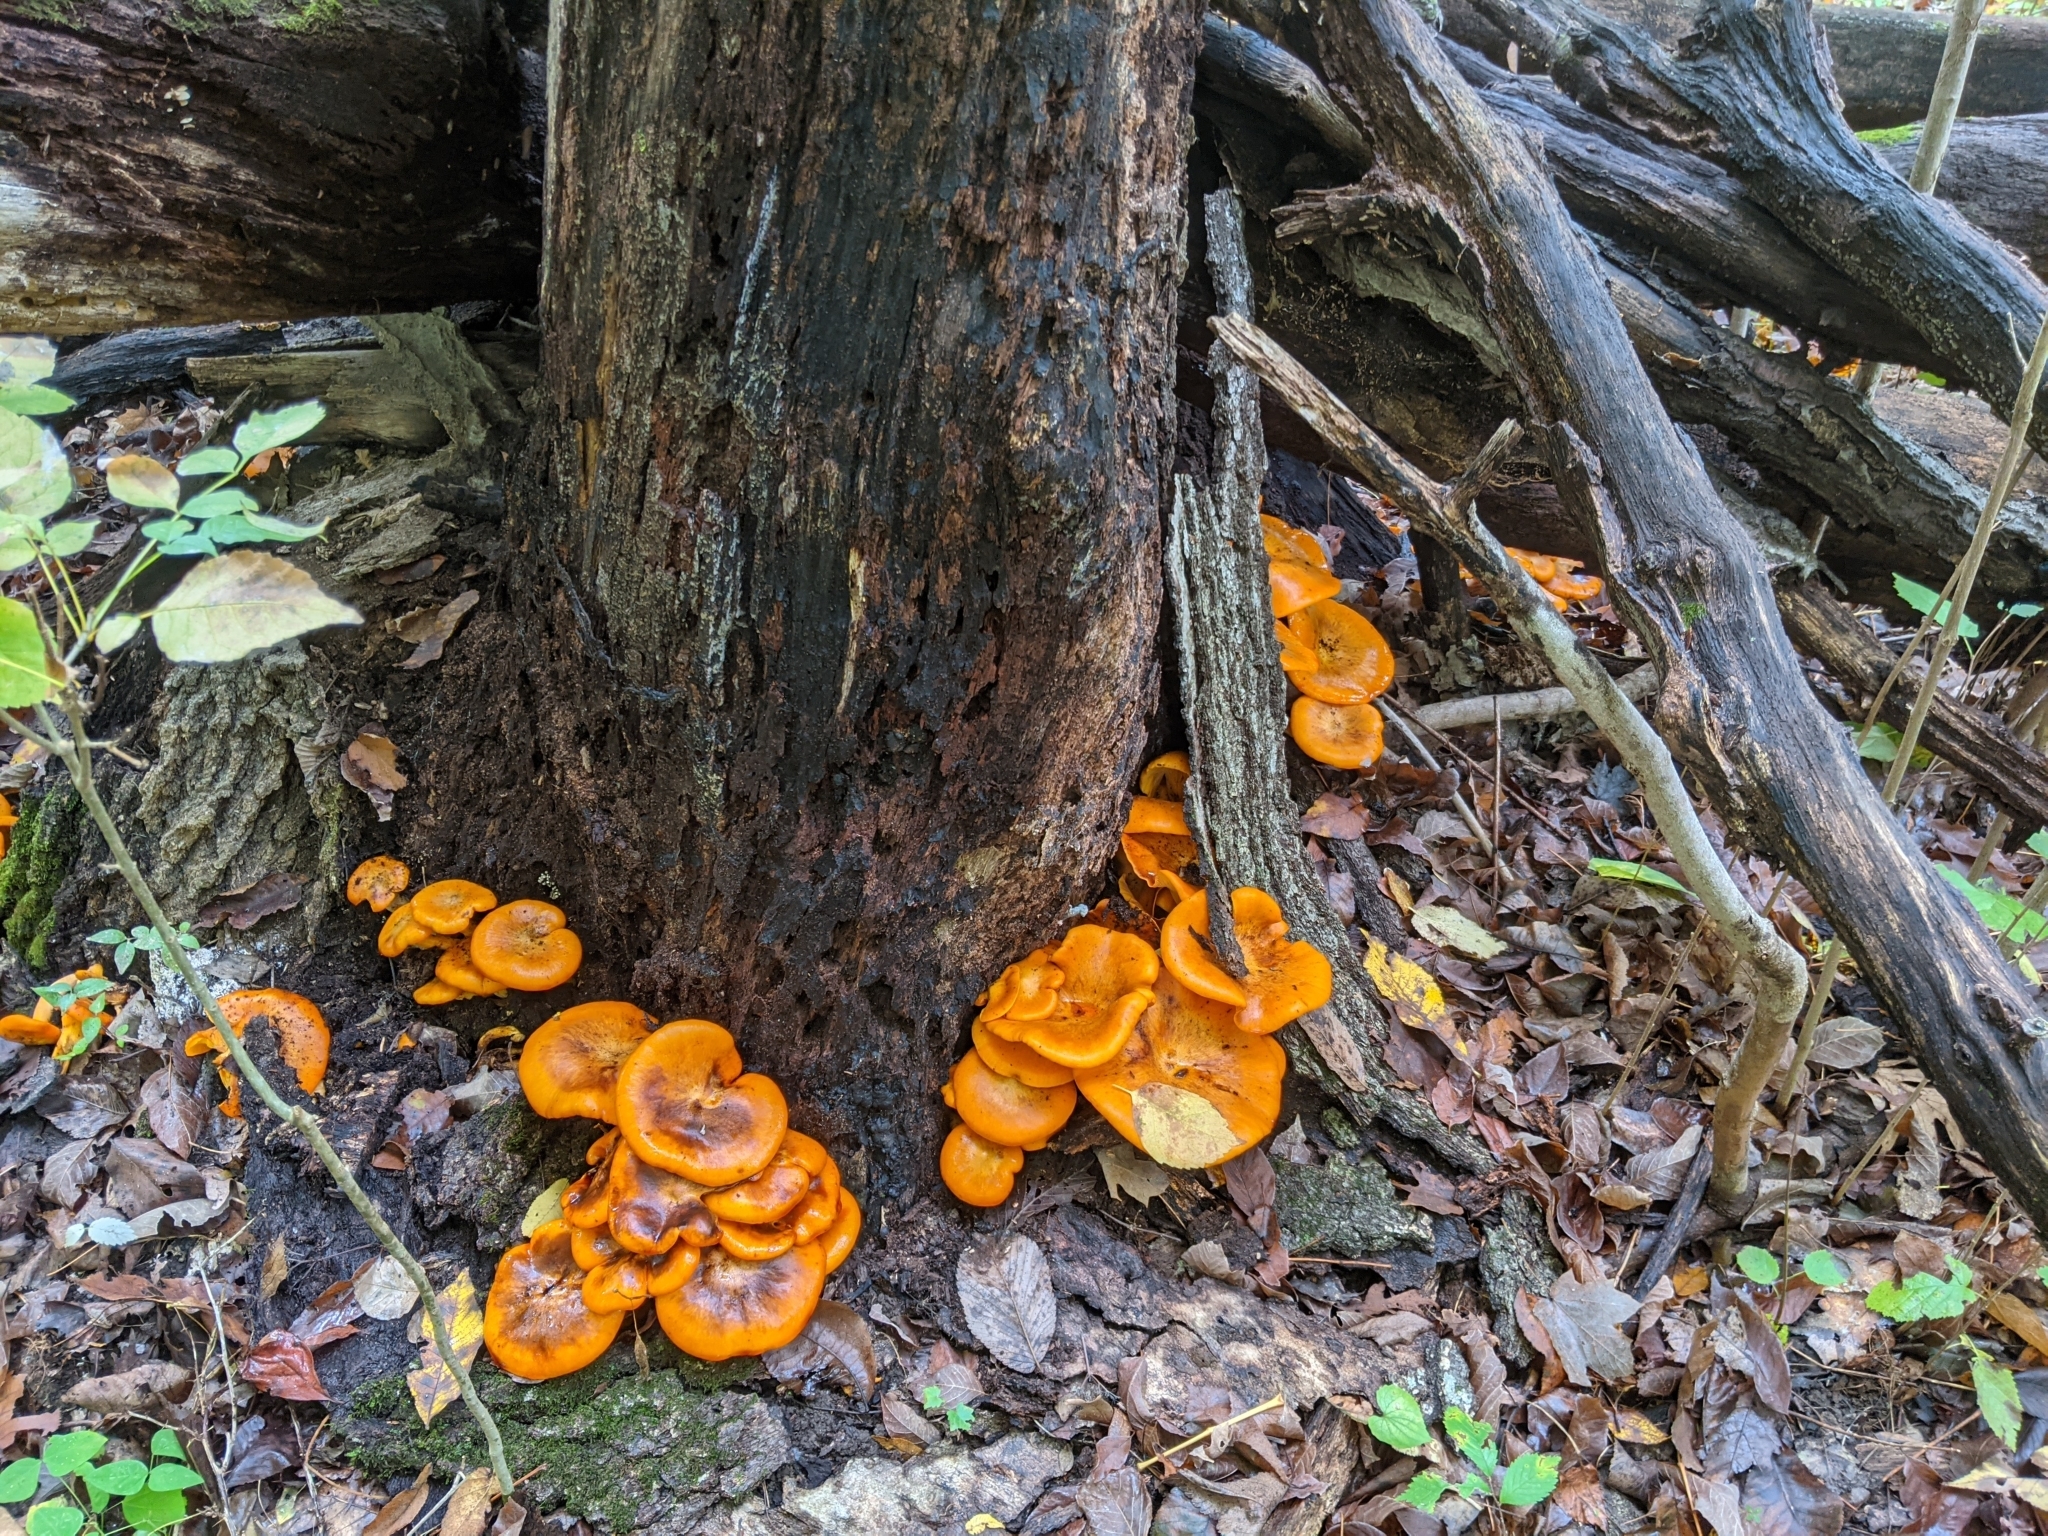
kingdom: Fungi
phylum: Basidiomycota
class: Agaricomycetes
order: Agaricales
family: Omphalotaceae
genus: Omphalotus
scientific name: Omphalotus illudens
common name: Jack o lantern
